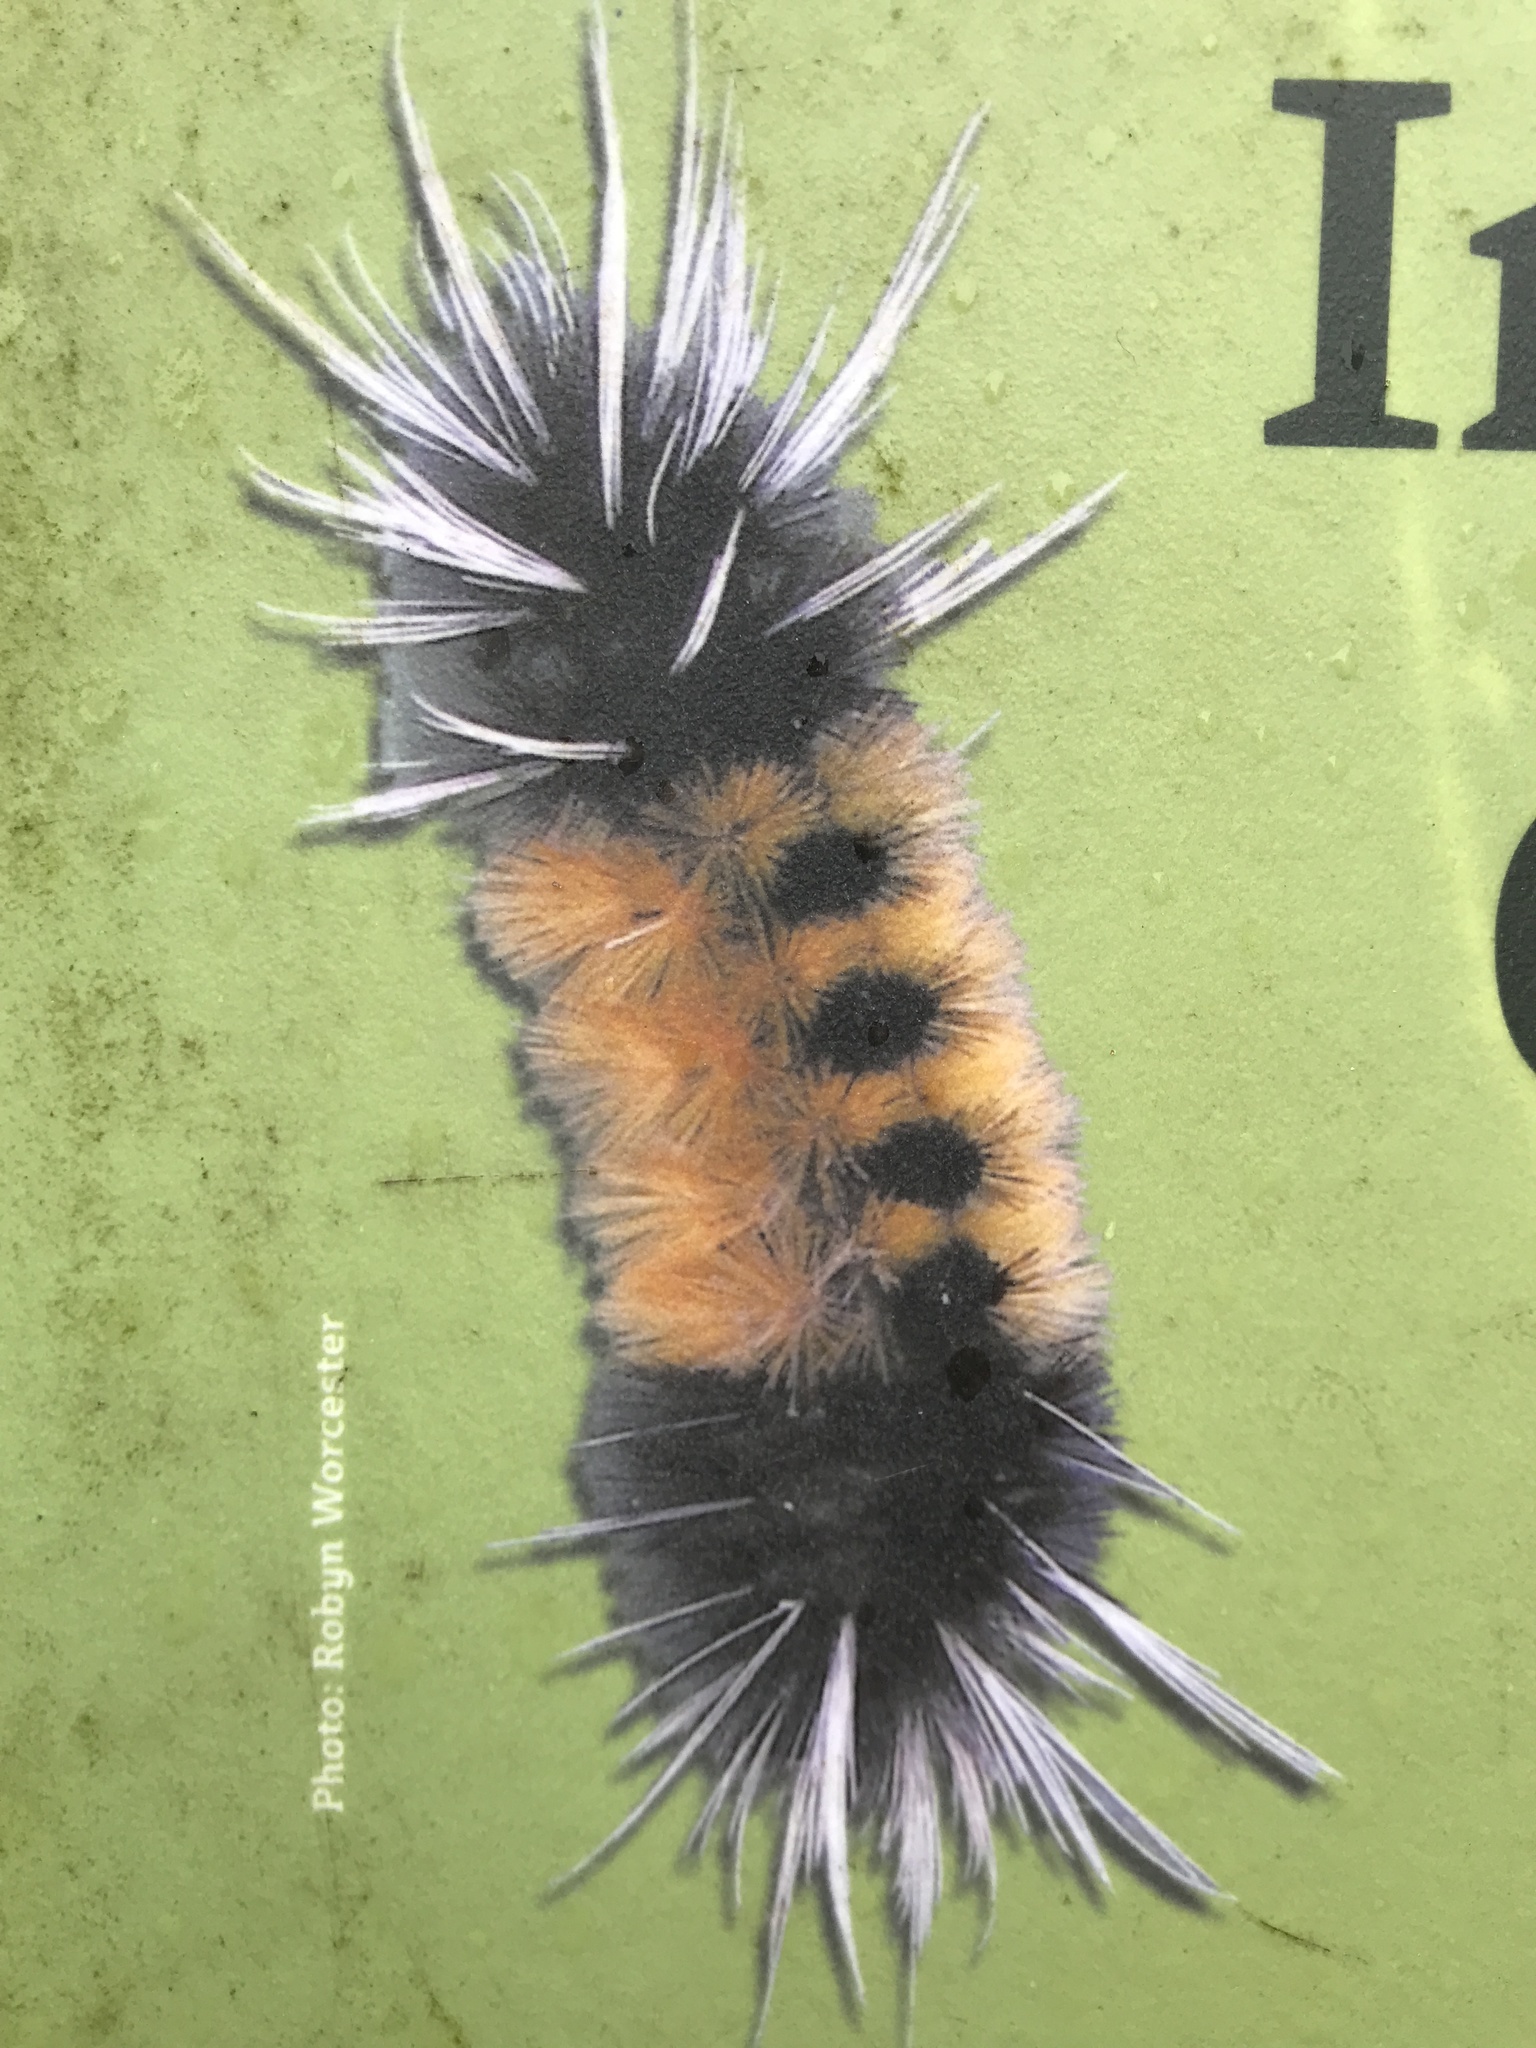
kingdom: Animalia
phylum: Arthropoda
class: Insecta
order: Lepidoptera
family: Erebidae
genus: Lophocampa
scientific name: Lophocampa maculata
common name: Spotted tussock moth
